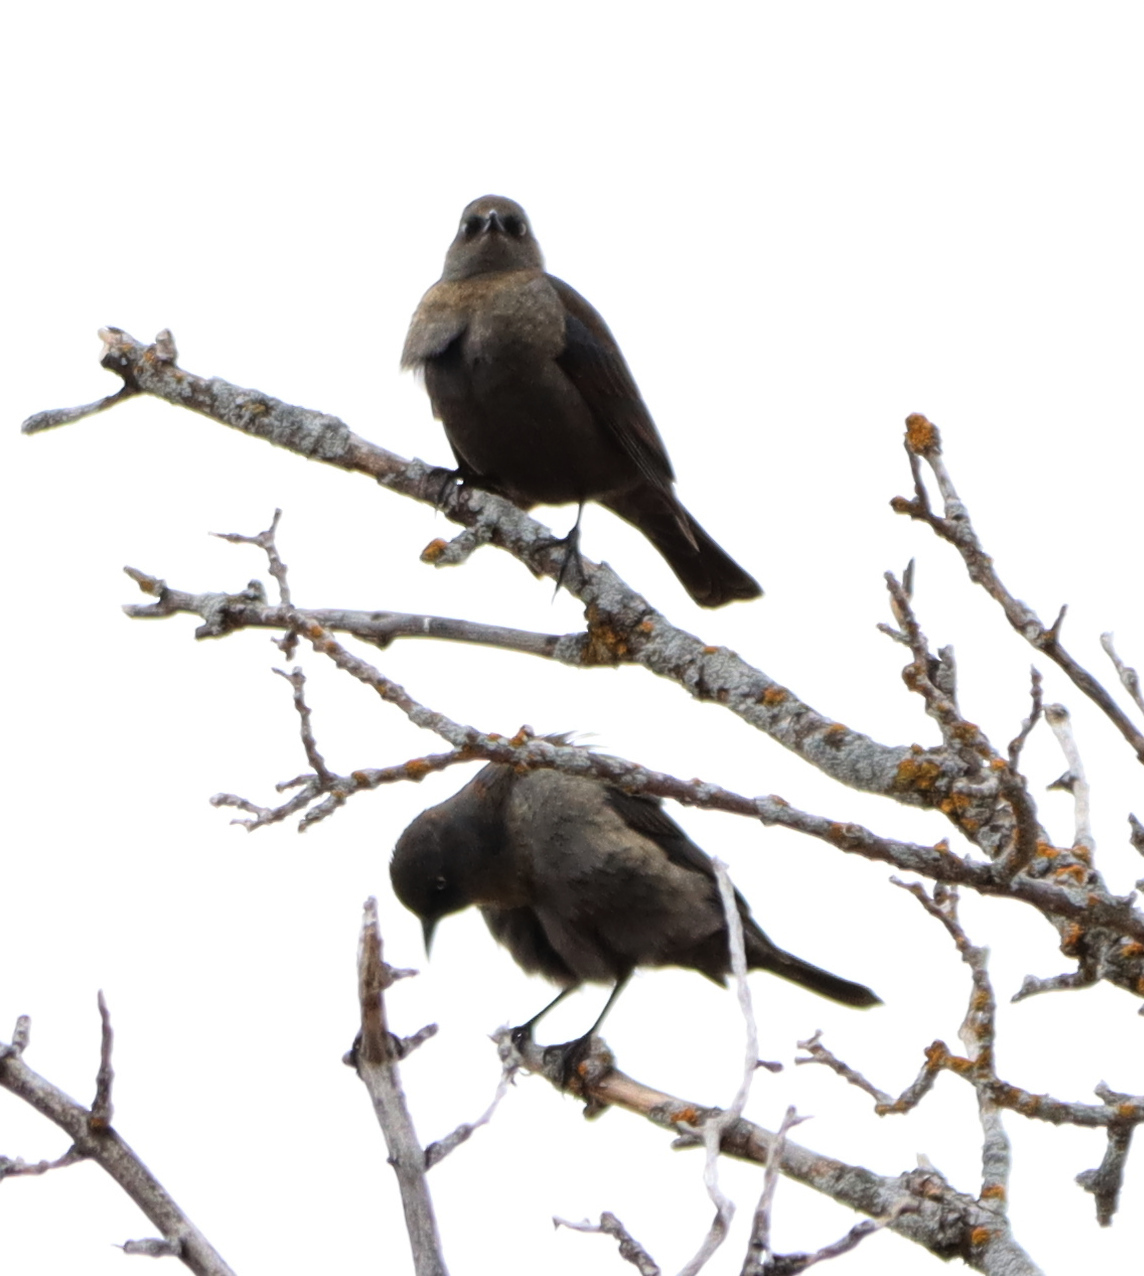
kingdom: Animalia
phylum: Chordata
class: Aves
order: Passeriformes
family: Icteridae
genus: Euphagus
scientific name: Euphagus carolinus
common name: Rusty blackbird
